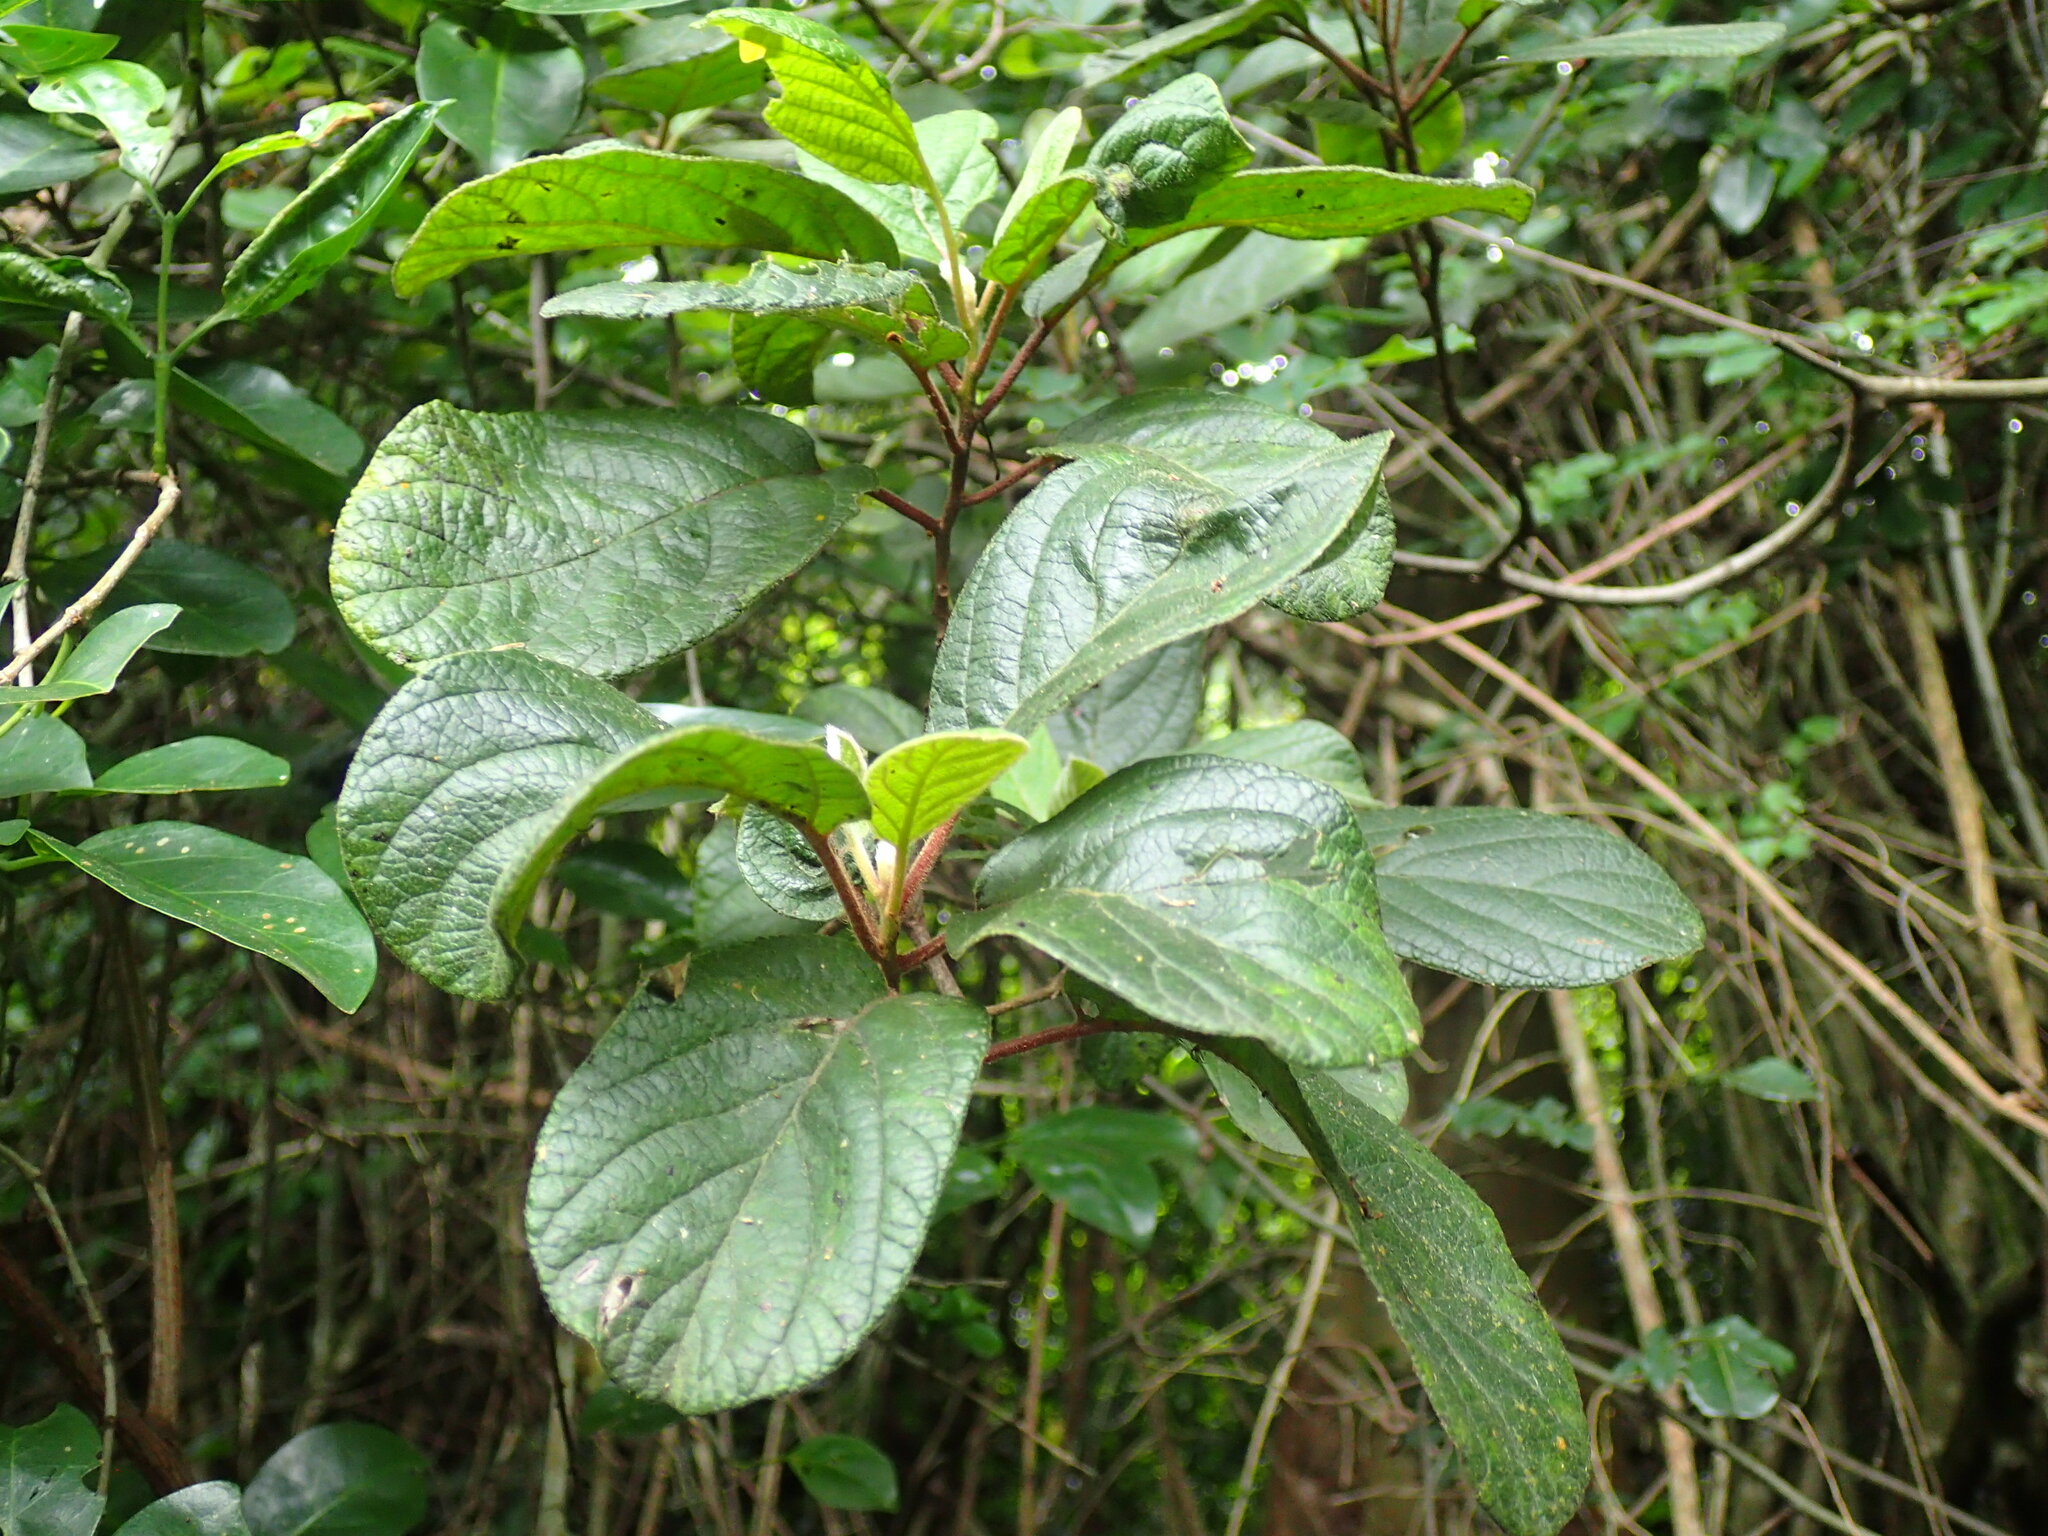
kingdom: Plantae
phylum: Tracheophyta
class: Magnoliopsida
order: Ericales
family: Ebenaceae
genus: Diospyros
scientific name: Diospyros villosa
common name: Hairy star-apple
